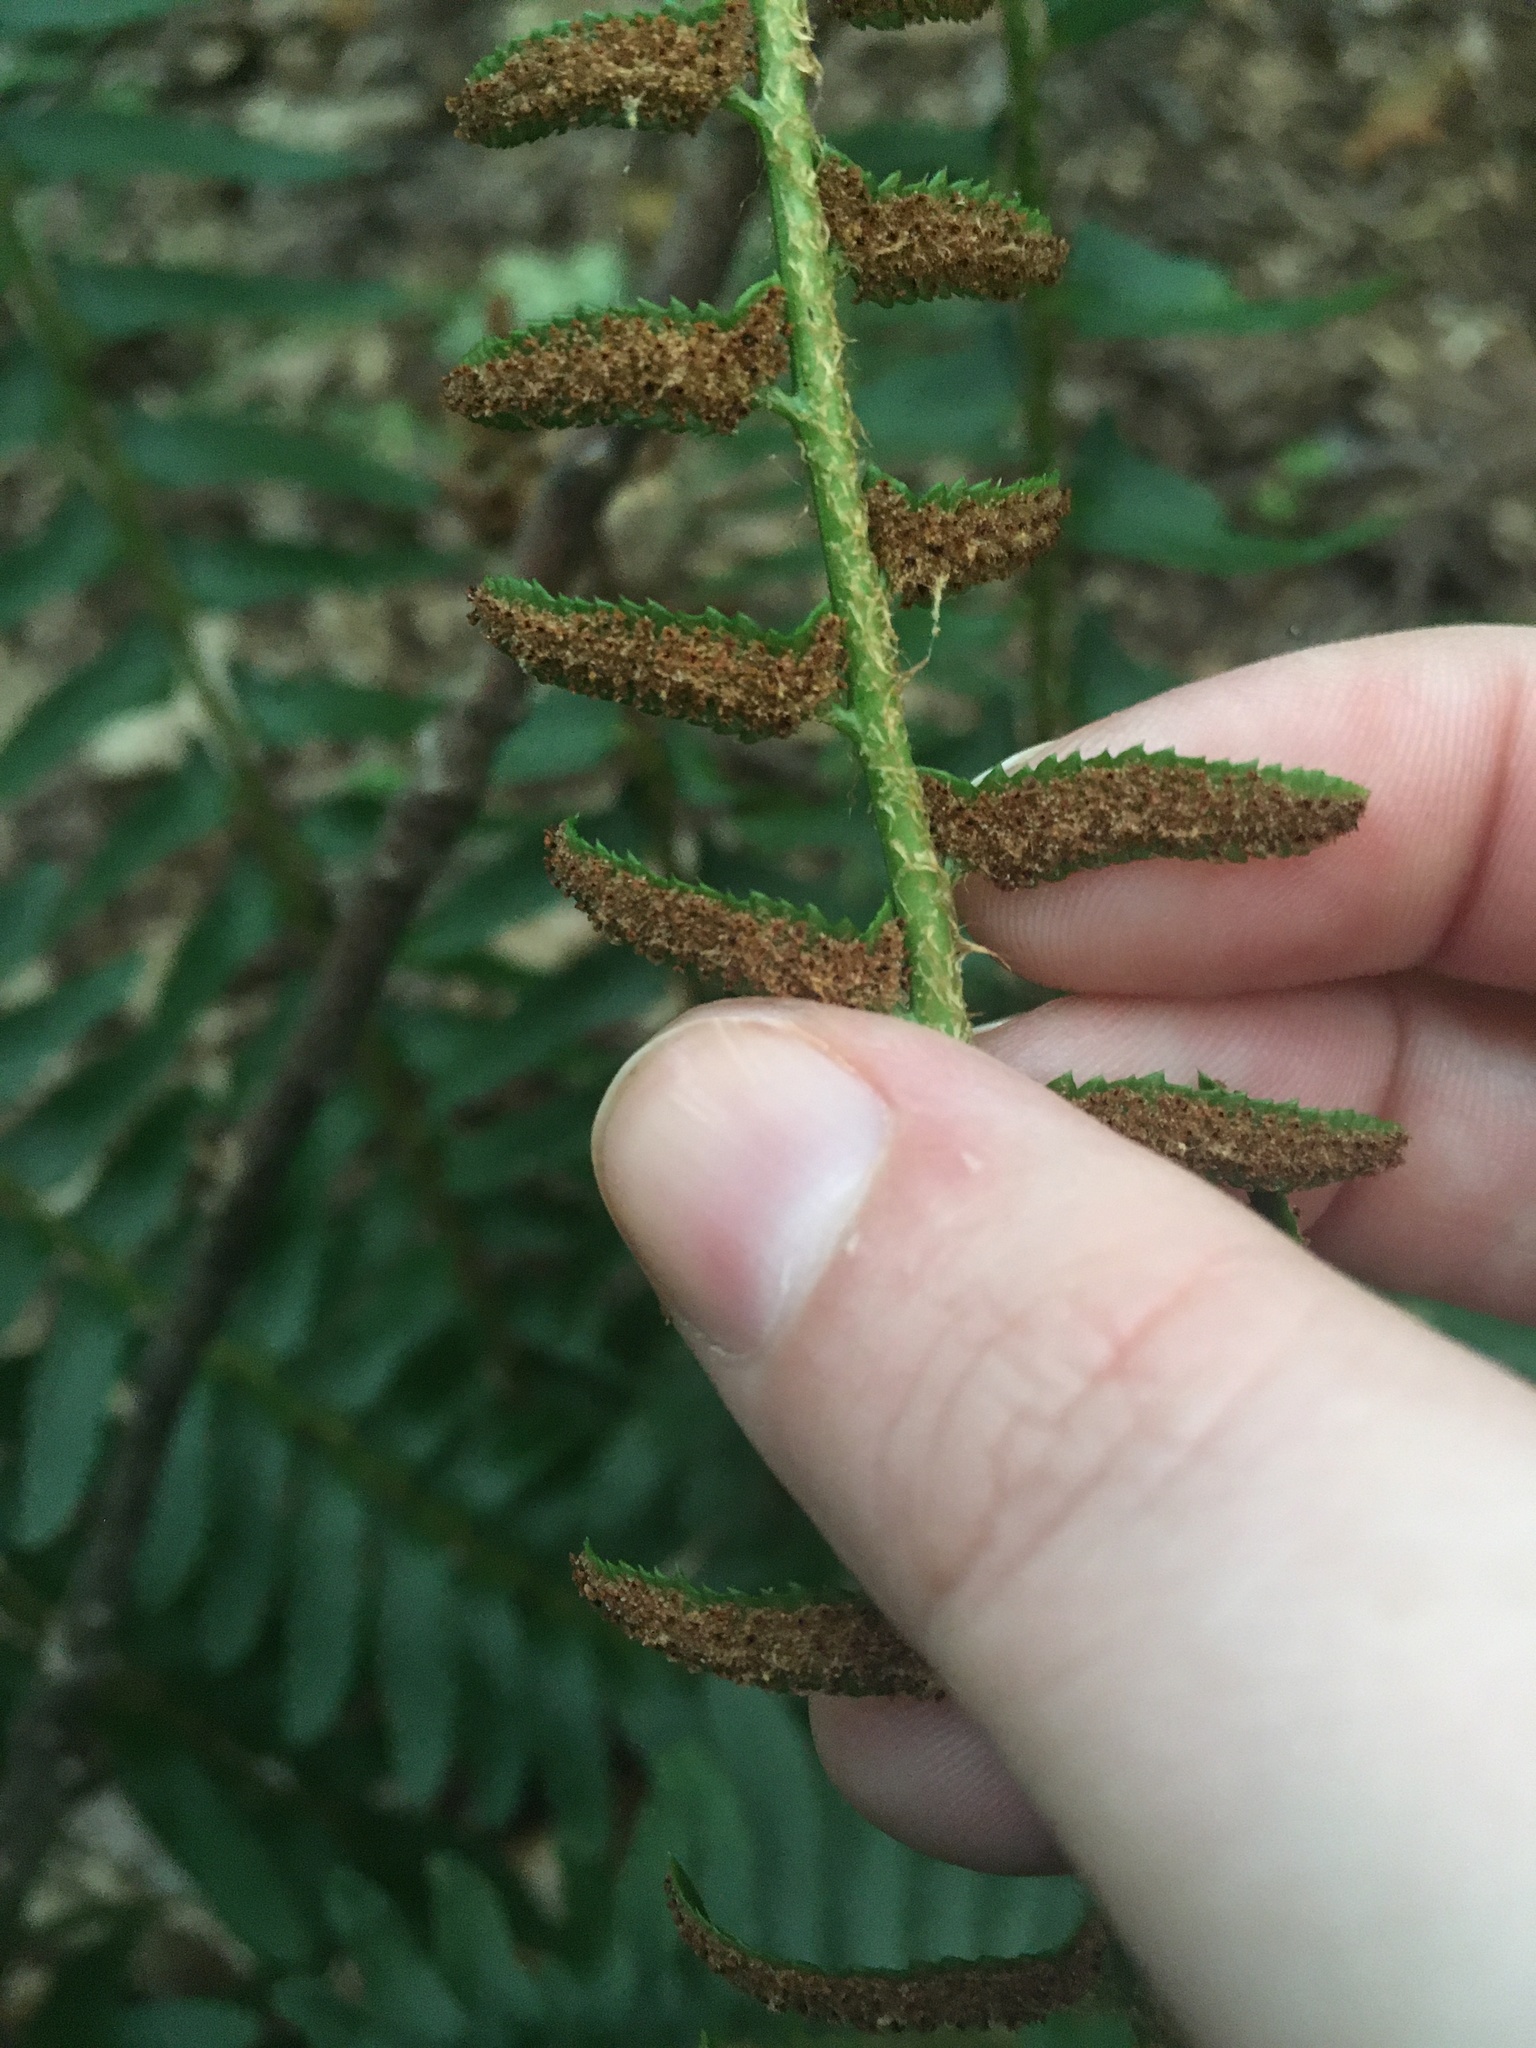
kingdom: Plantae
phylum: Tracheophyta
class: Polypodiopsida
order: Polypodiales
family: Dryopteridaceae
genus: Polystichum
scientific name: Polystichum acrostichoides
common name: Christmas fern
